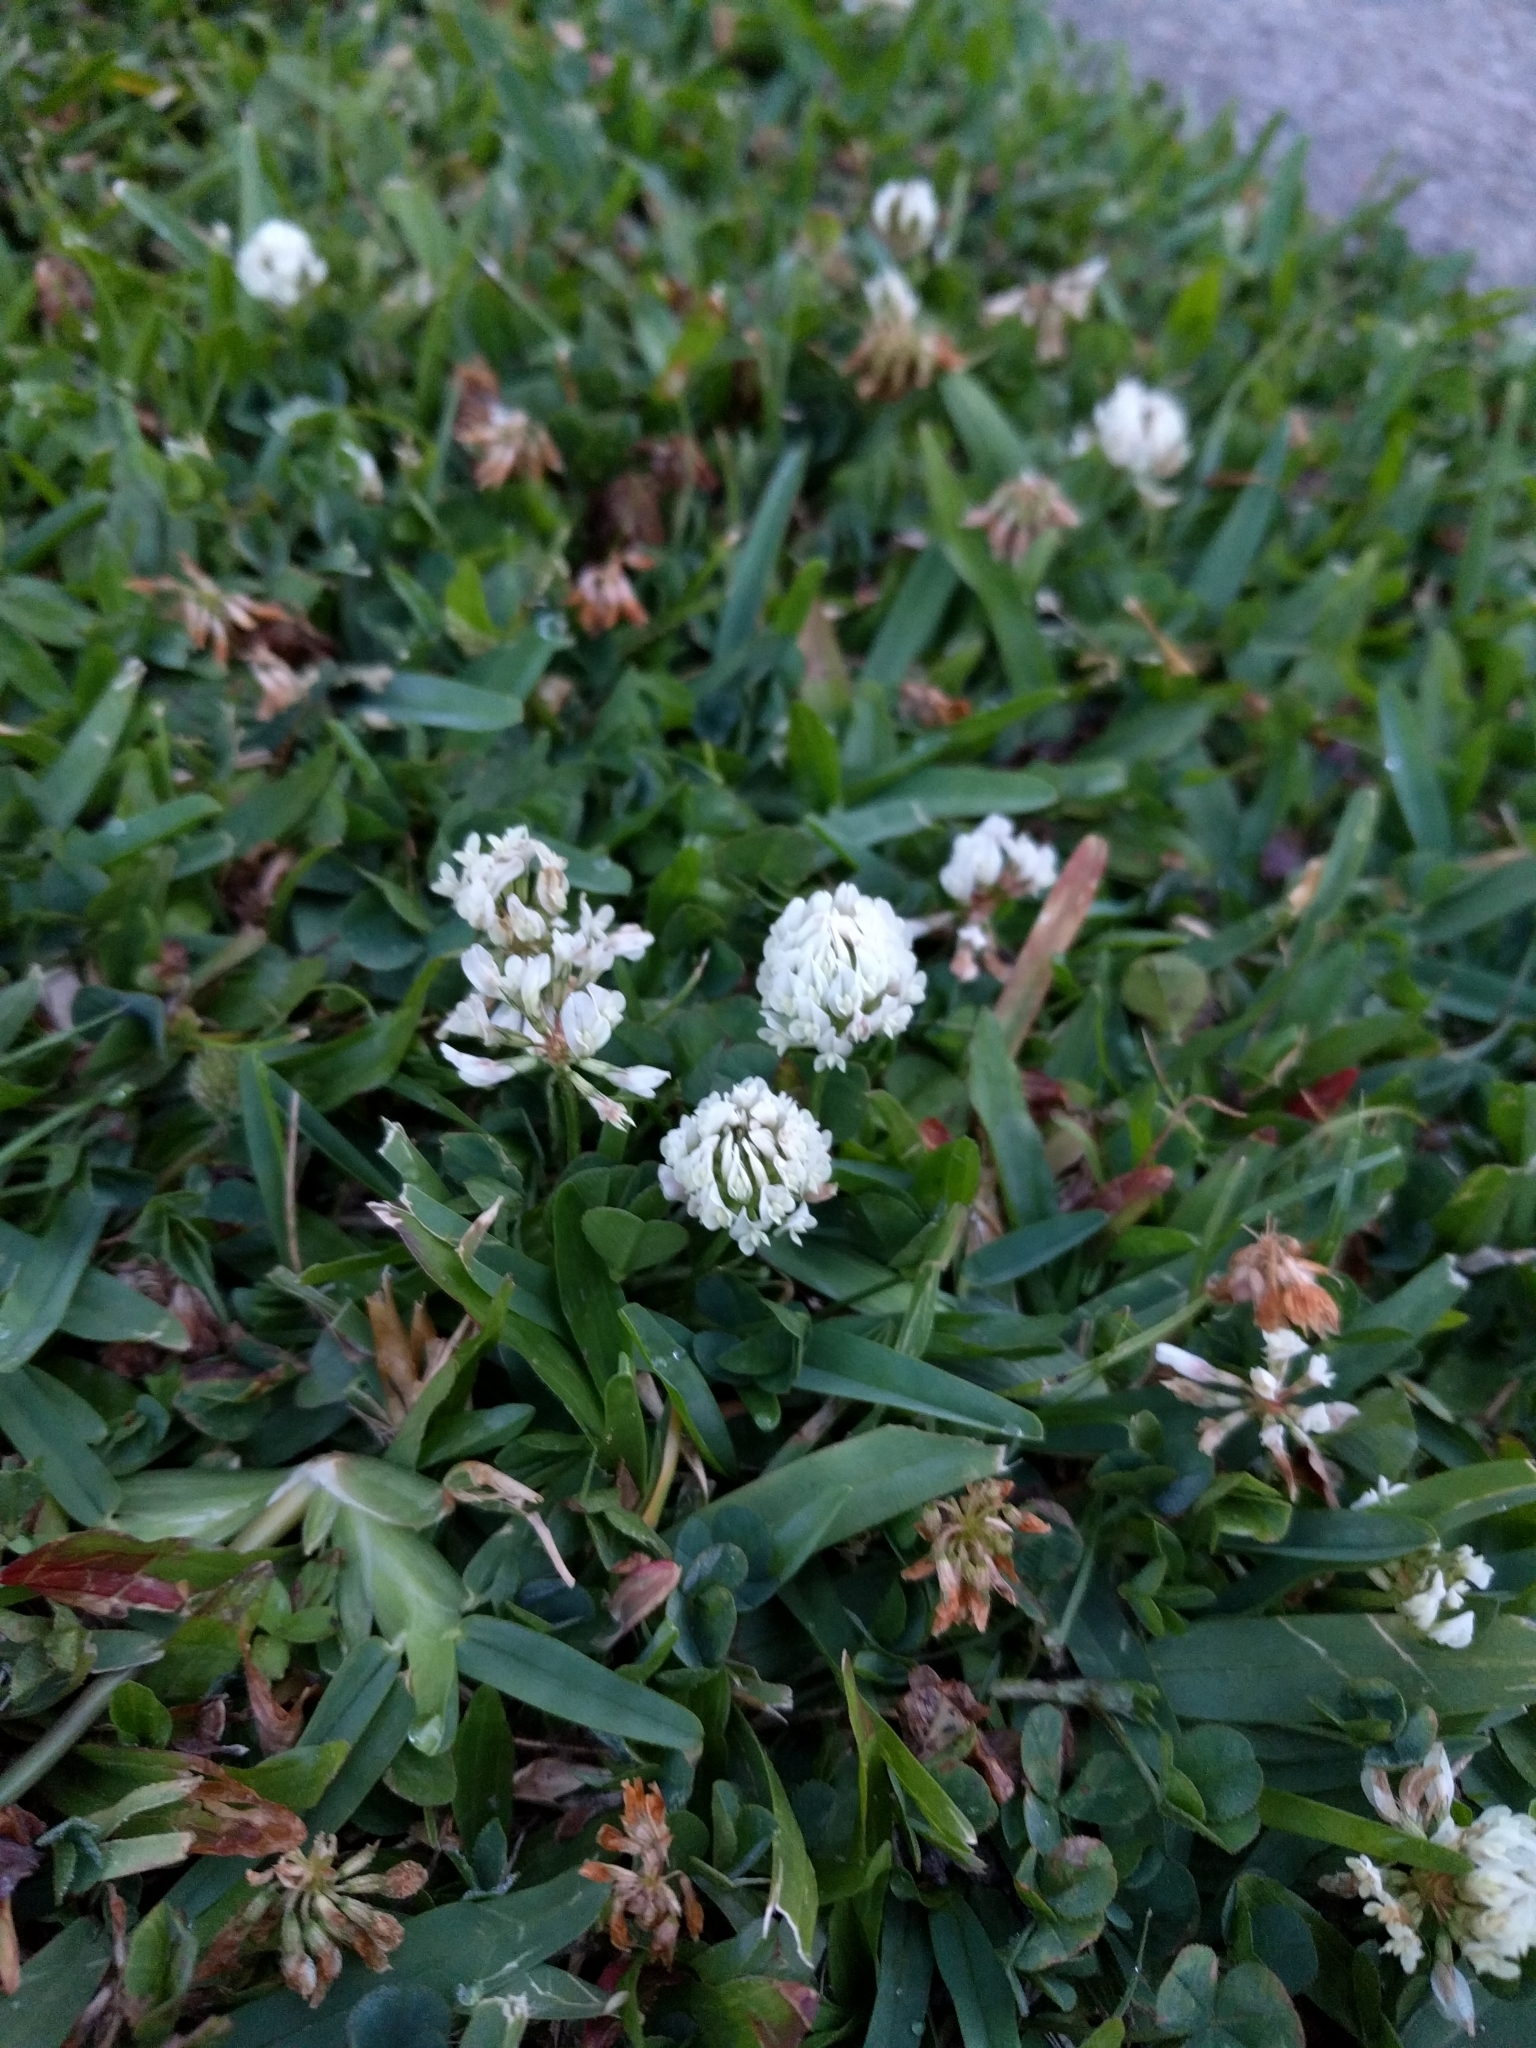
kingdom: Plantae
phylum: Tracheophyta
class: Magnoliopsida
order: Fabales
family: Fabaceae
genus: Trifolium
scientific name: Trifolium repens
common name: White clover
